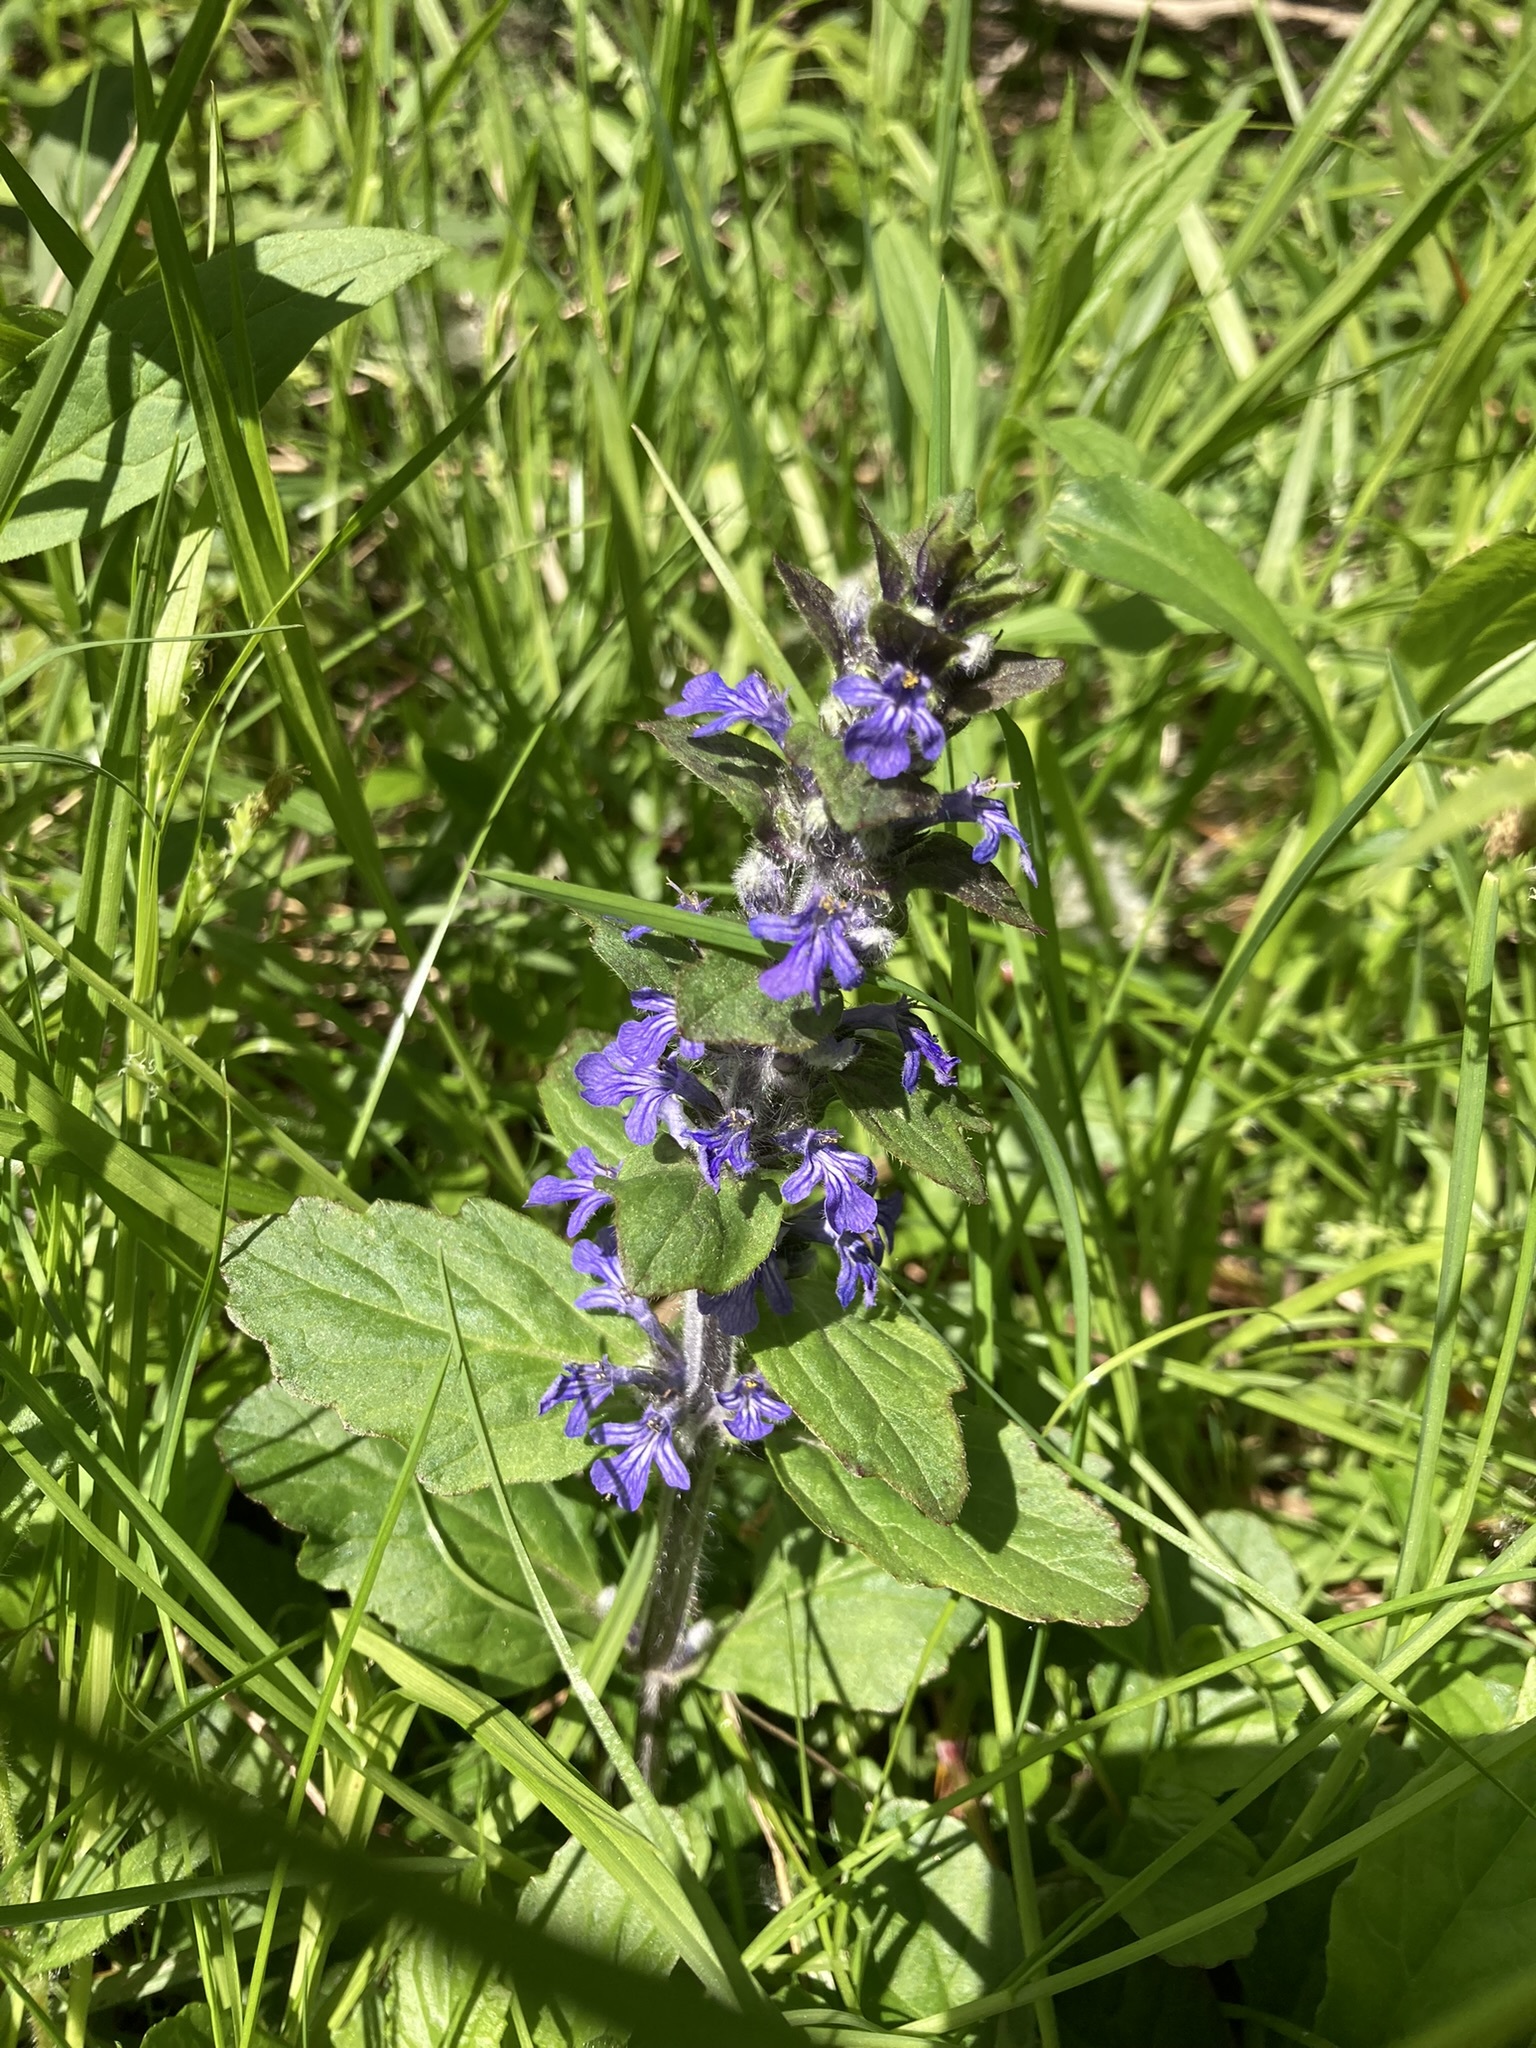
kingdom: Plantae
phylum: Tracheophyta
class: Magnoliopsida
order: Lamiales
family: Lamiaceae
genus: Ajuga
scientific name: Ajuga reptans
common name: Bugle
